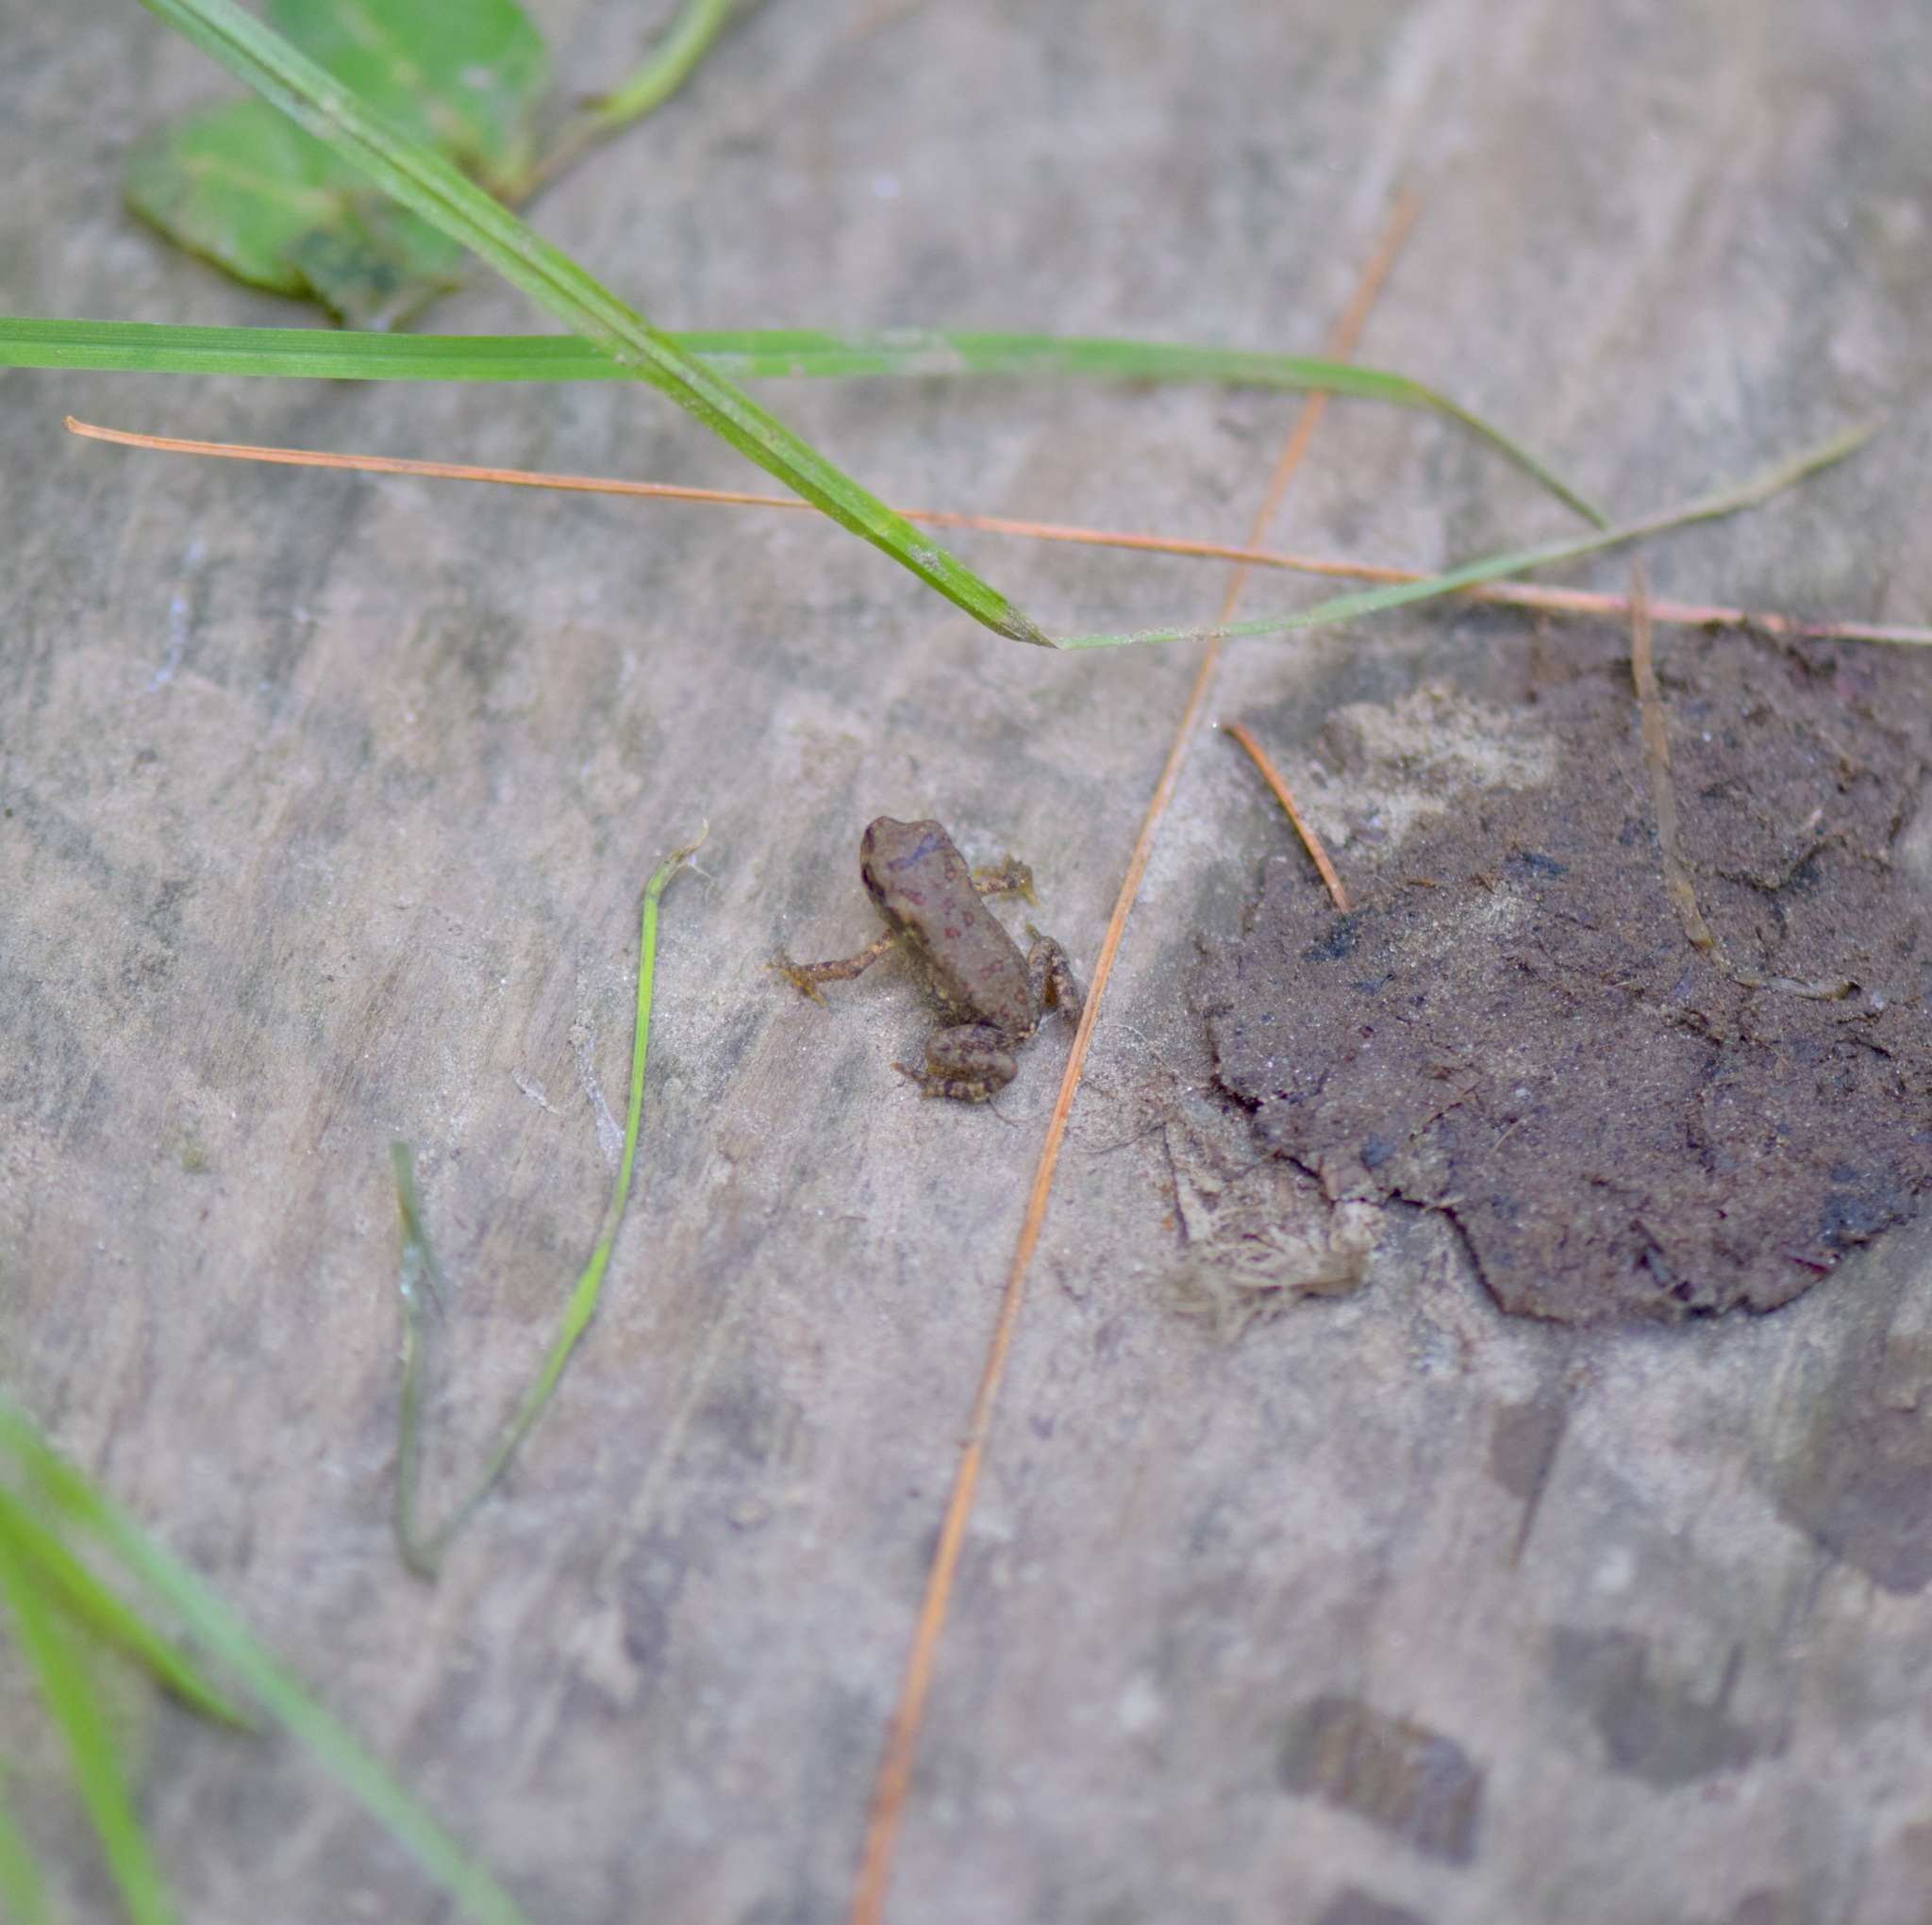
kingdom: Animalia
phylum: Chordata
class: Amphibia
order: Anura
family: Bufonidae
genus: Anaxyrus
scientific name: Anaxyrus americanus
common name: American toad
